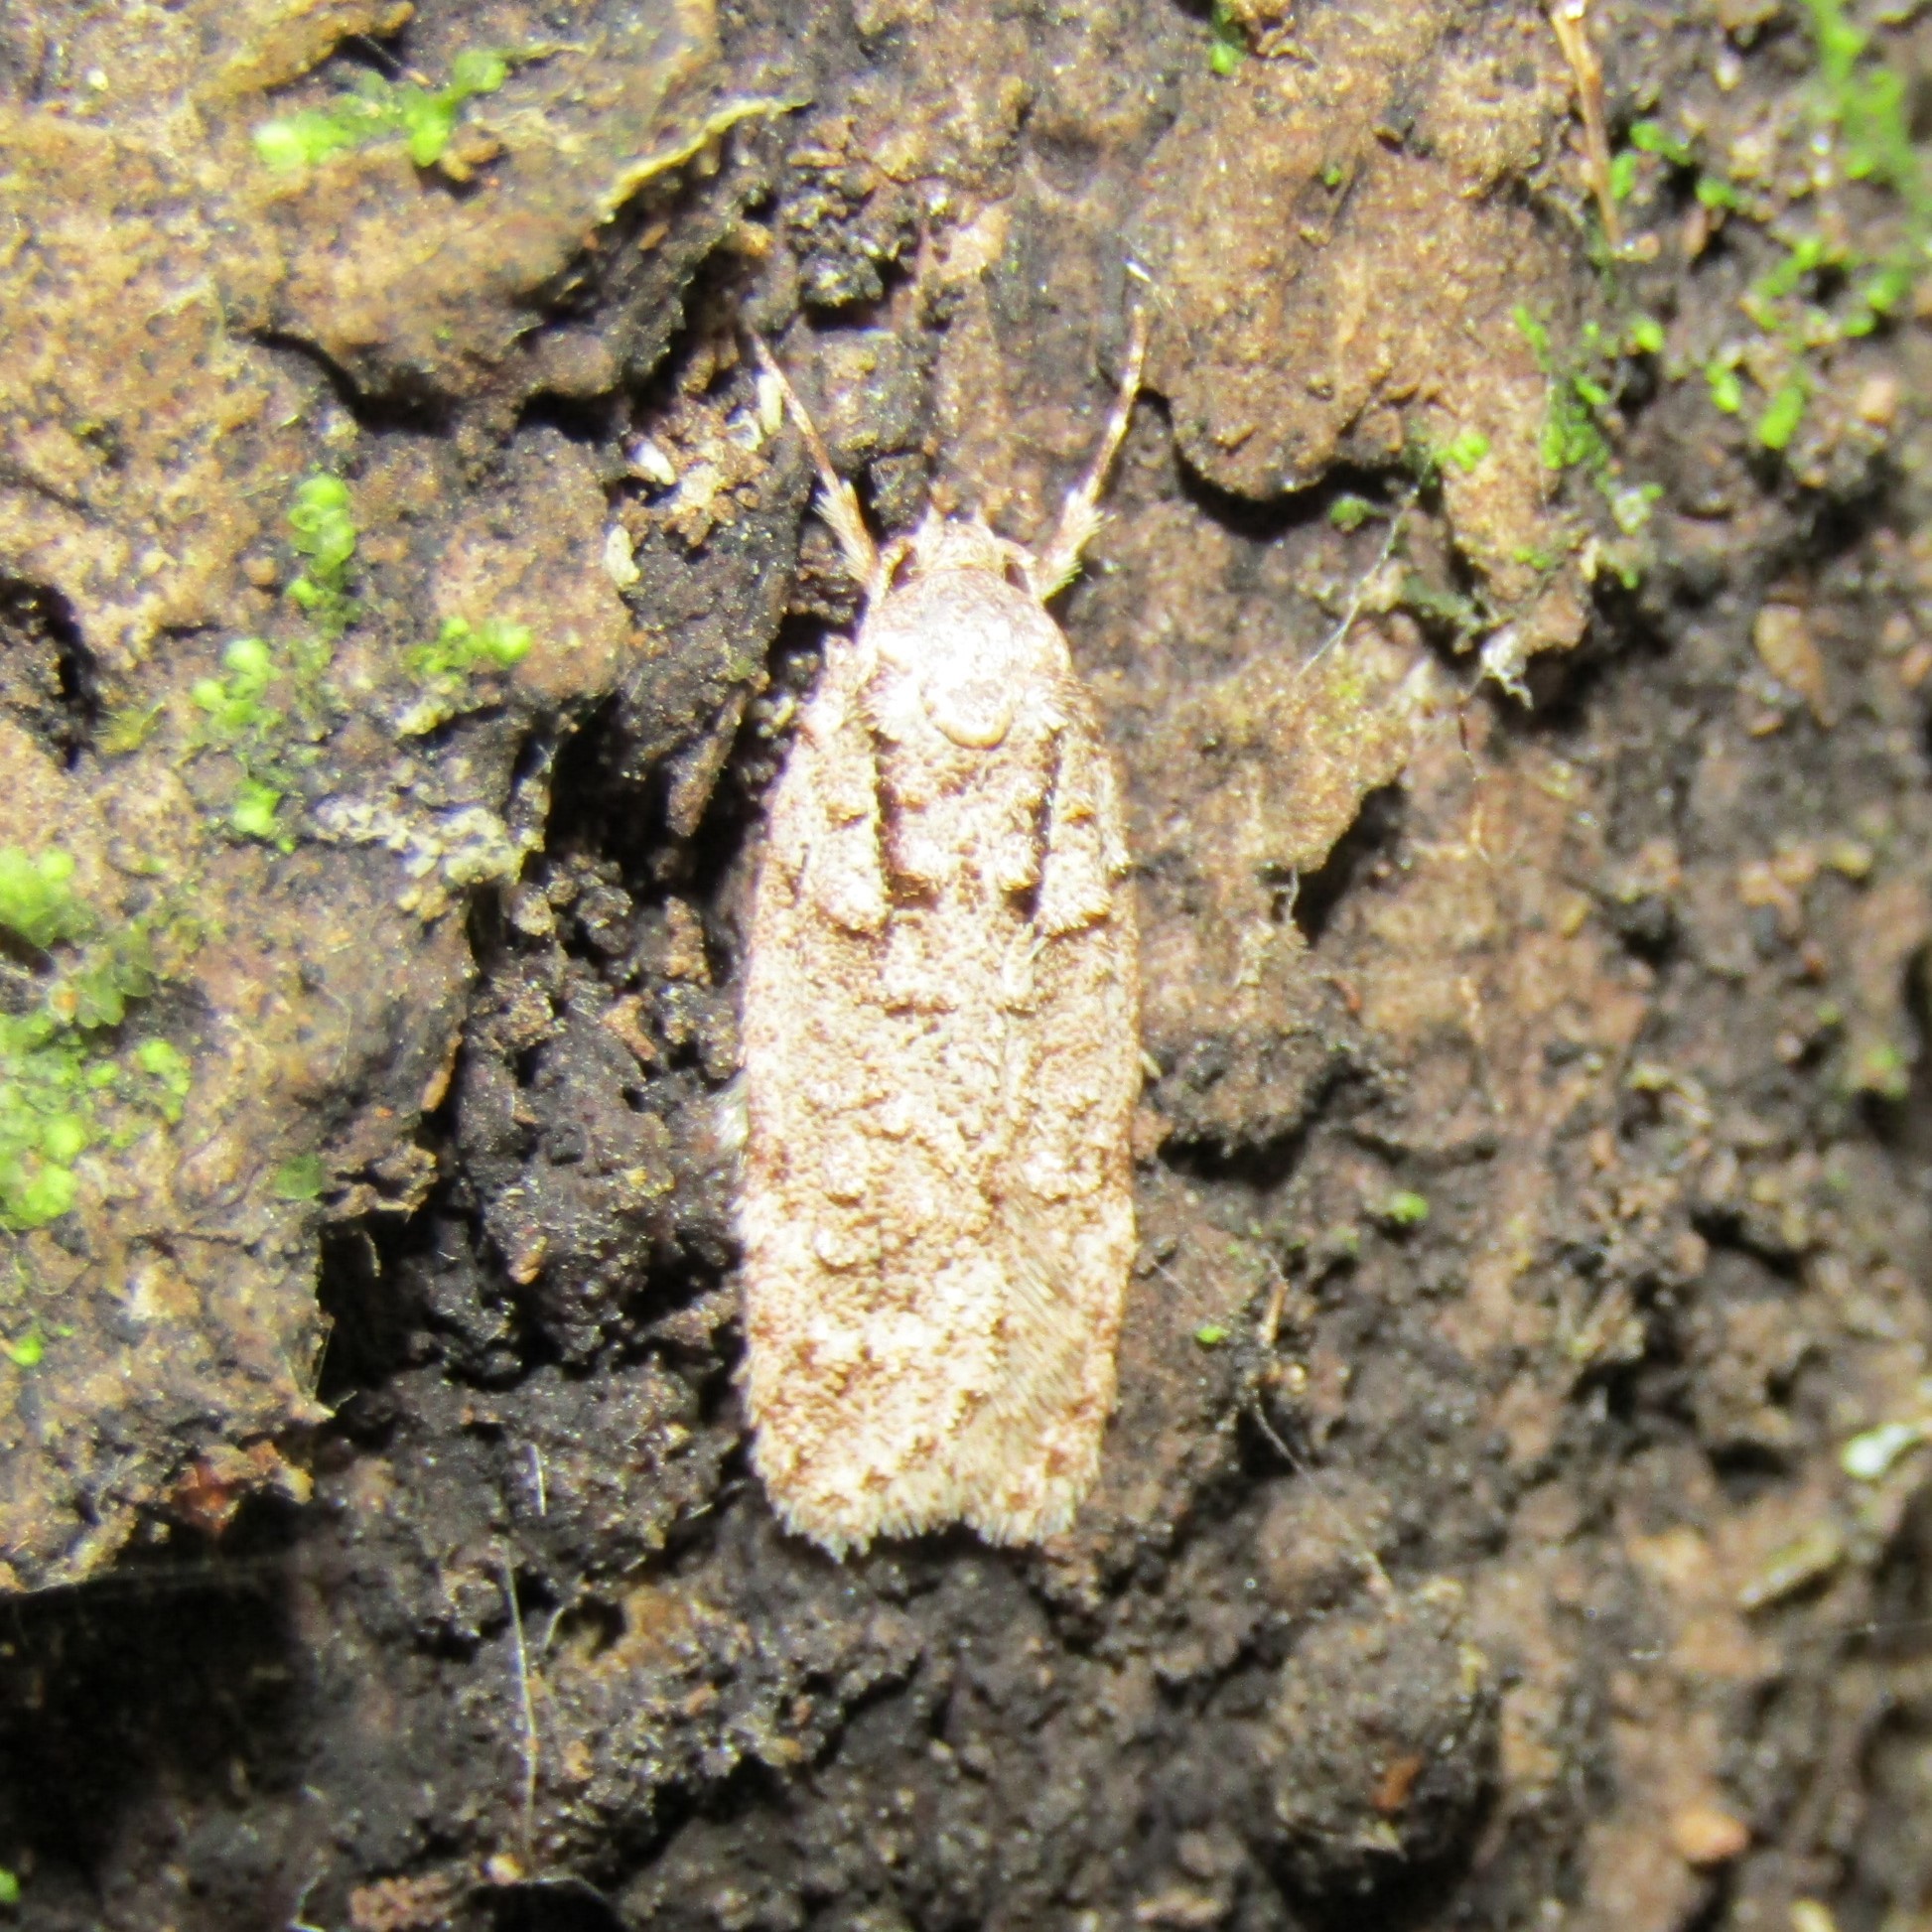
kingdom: Animalia
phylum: Arthropoda
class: Insecta
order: Lepidoptera
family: Oecophoridae
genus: Izatha
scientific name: Izatha attactella
